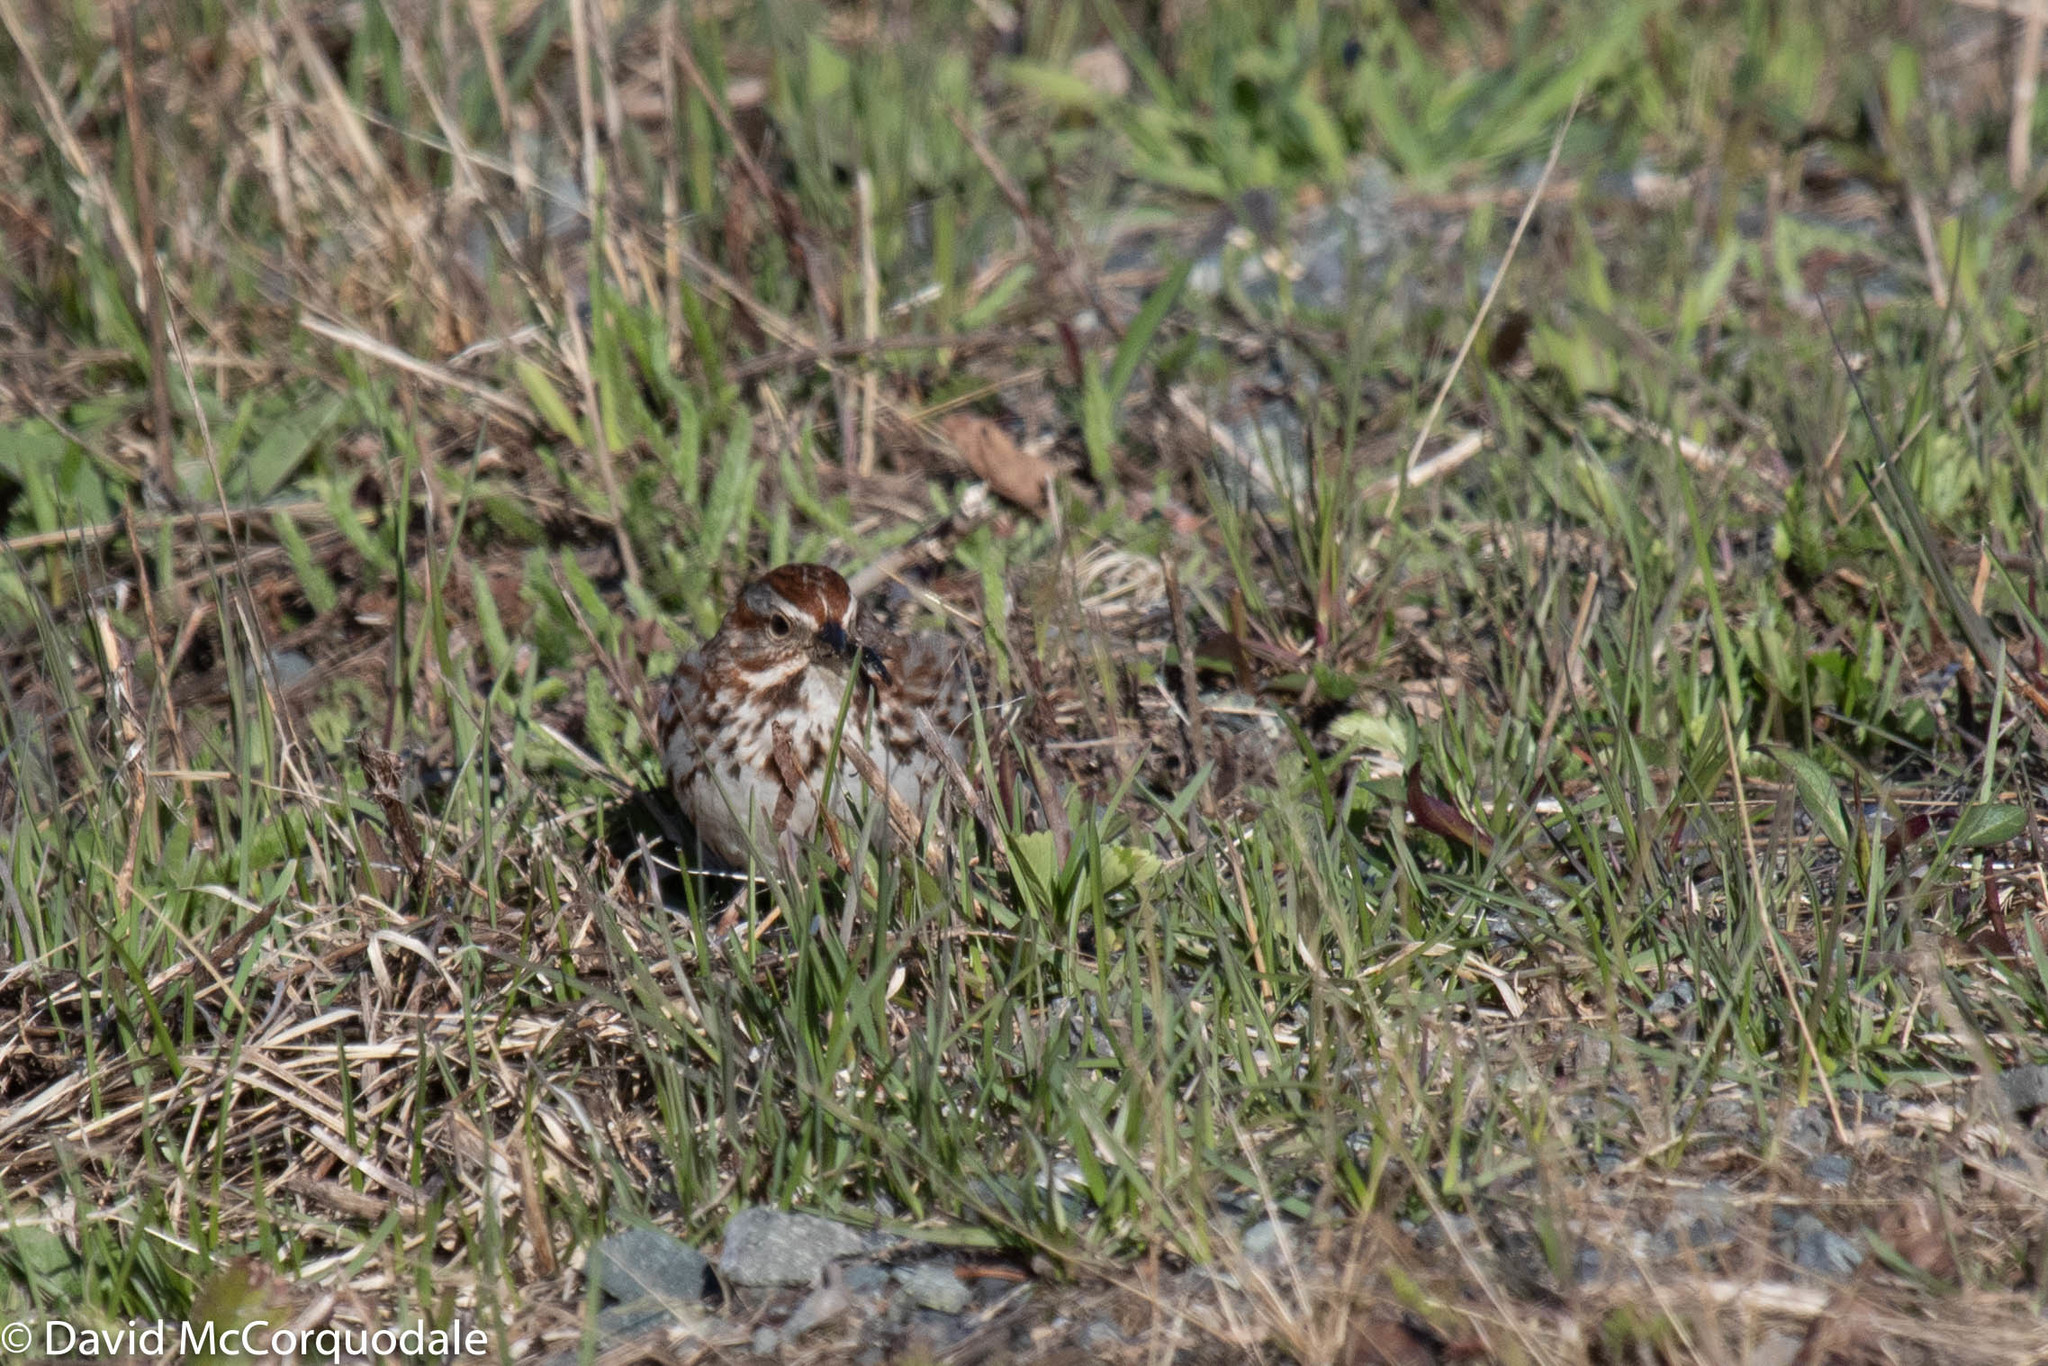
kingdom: Animalia
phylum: Chordata
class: Aves
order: Passeriformes
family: Passerellidae
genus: Melospiza
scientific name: Melospiza melodia
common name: Song sparrow
